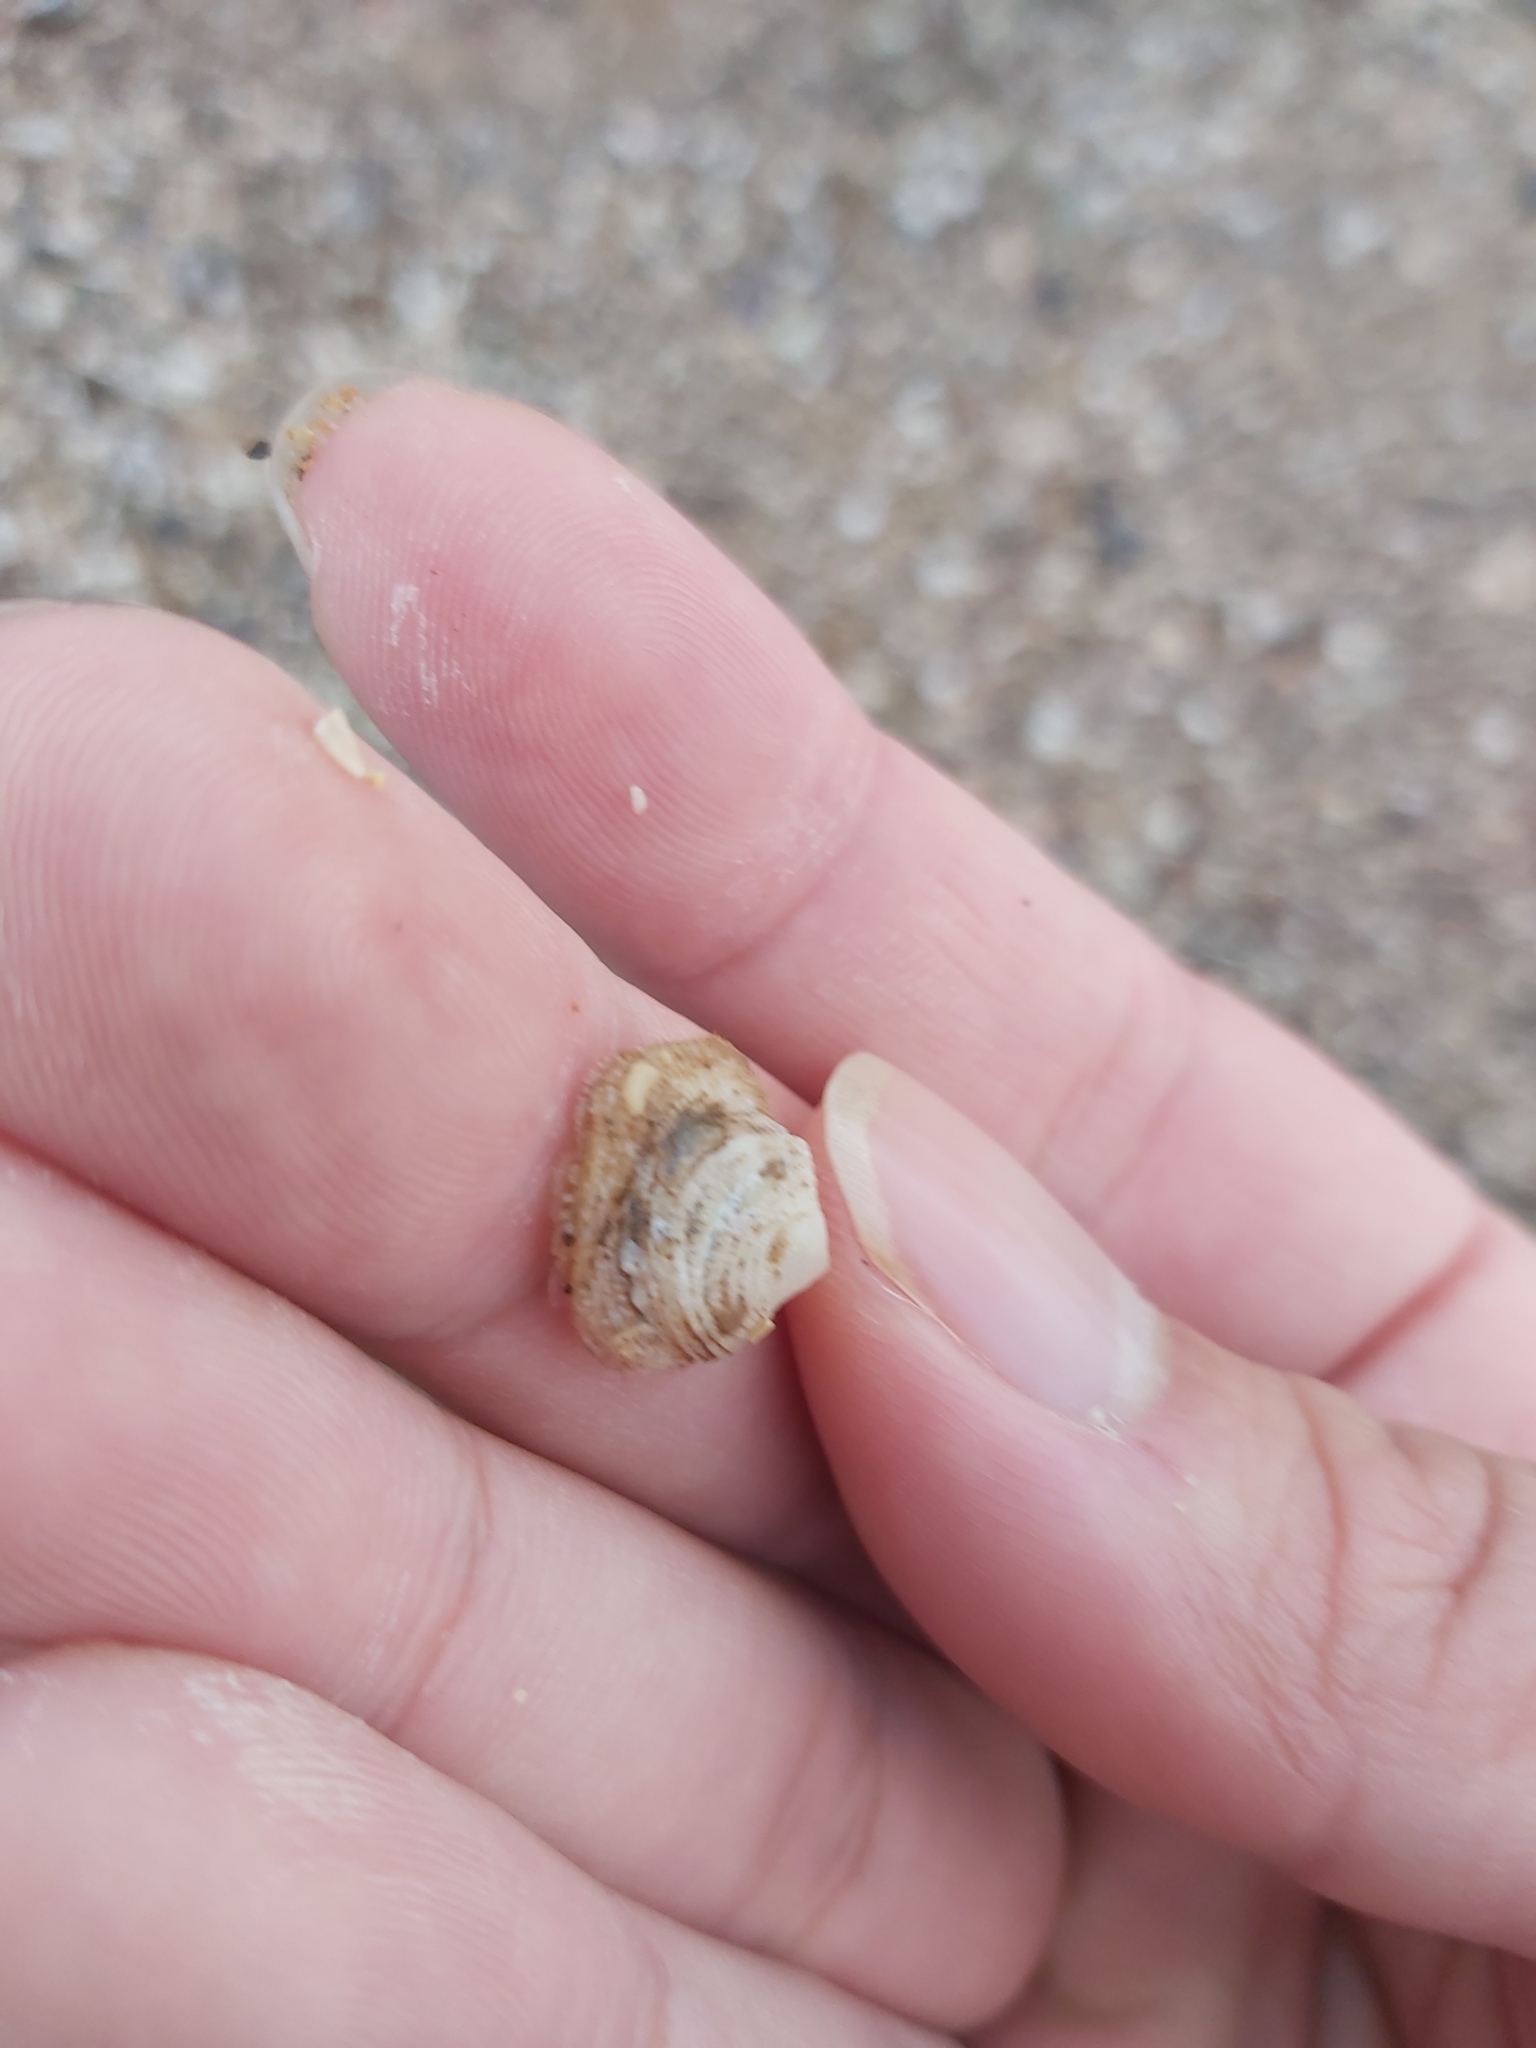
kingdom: Animalia
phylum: Mollusca
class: Gastropoda
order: Littorinimorpha
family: Hipponicidae
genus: Antisabia
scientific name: Antisabia foliacea
